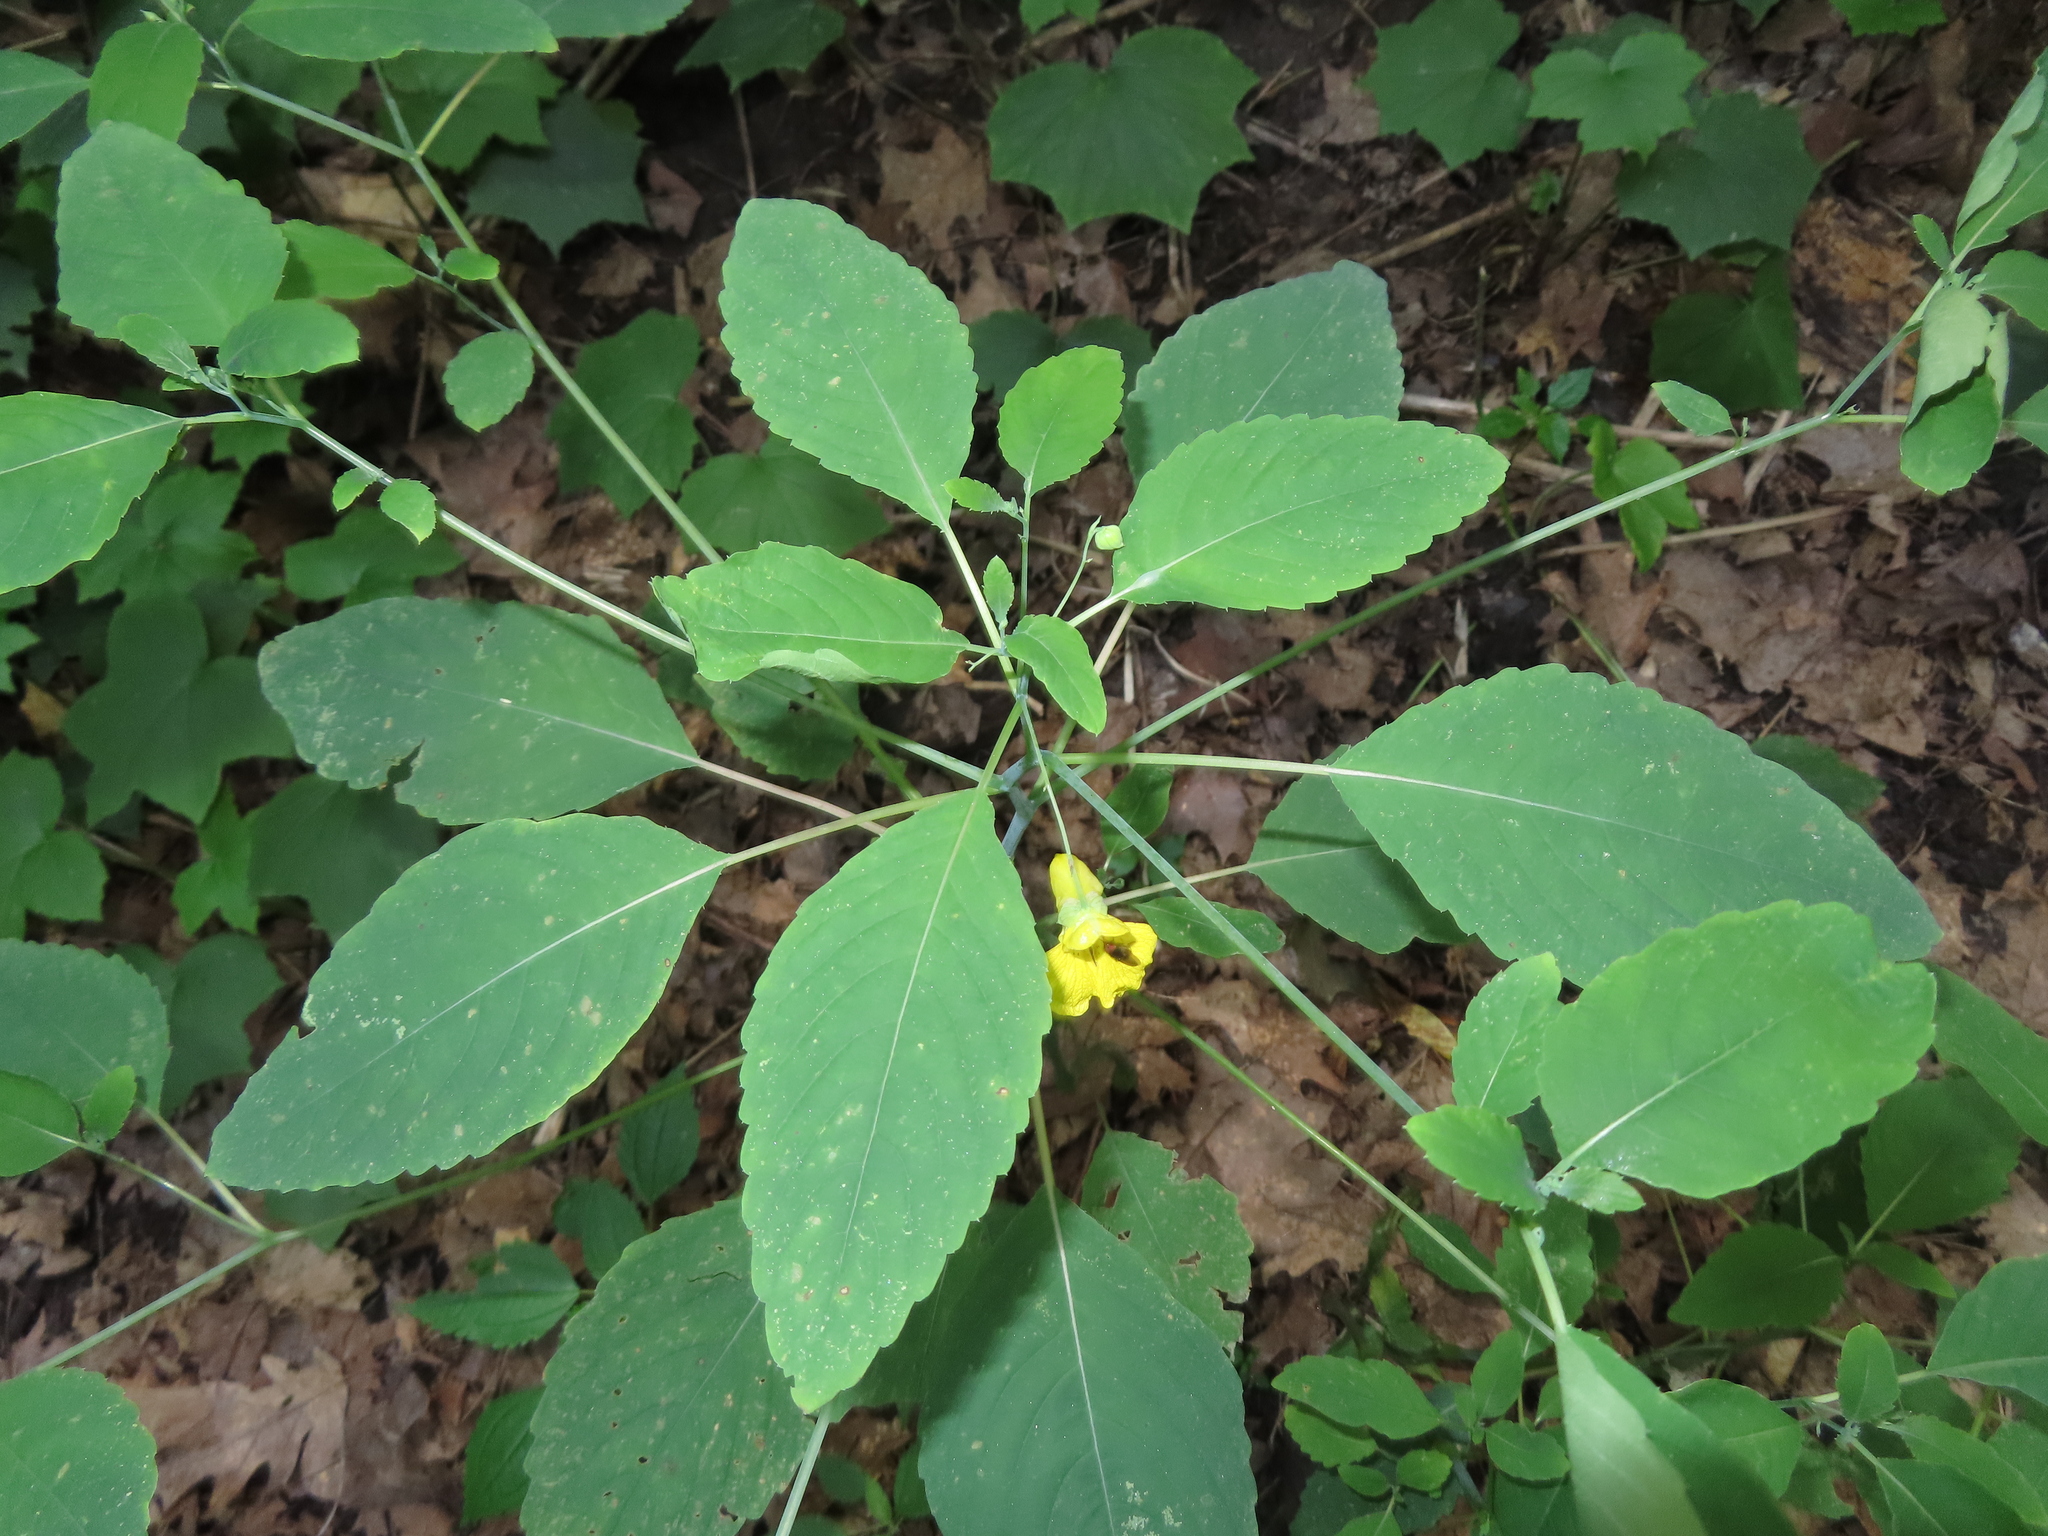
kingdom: Plantae
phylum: Tracheophyta
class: Magnoliopsida
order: Ericales
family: Balsaminaceae
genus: Impatiens
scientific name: Impatiens pallida
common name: Pale snapweed
